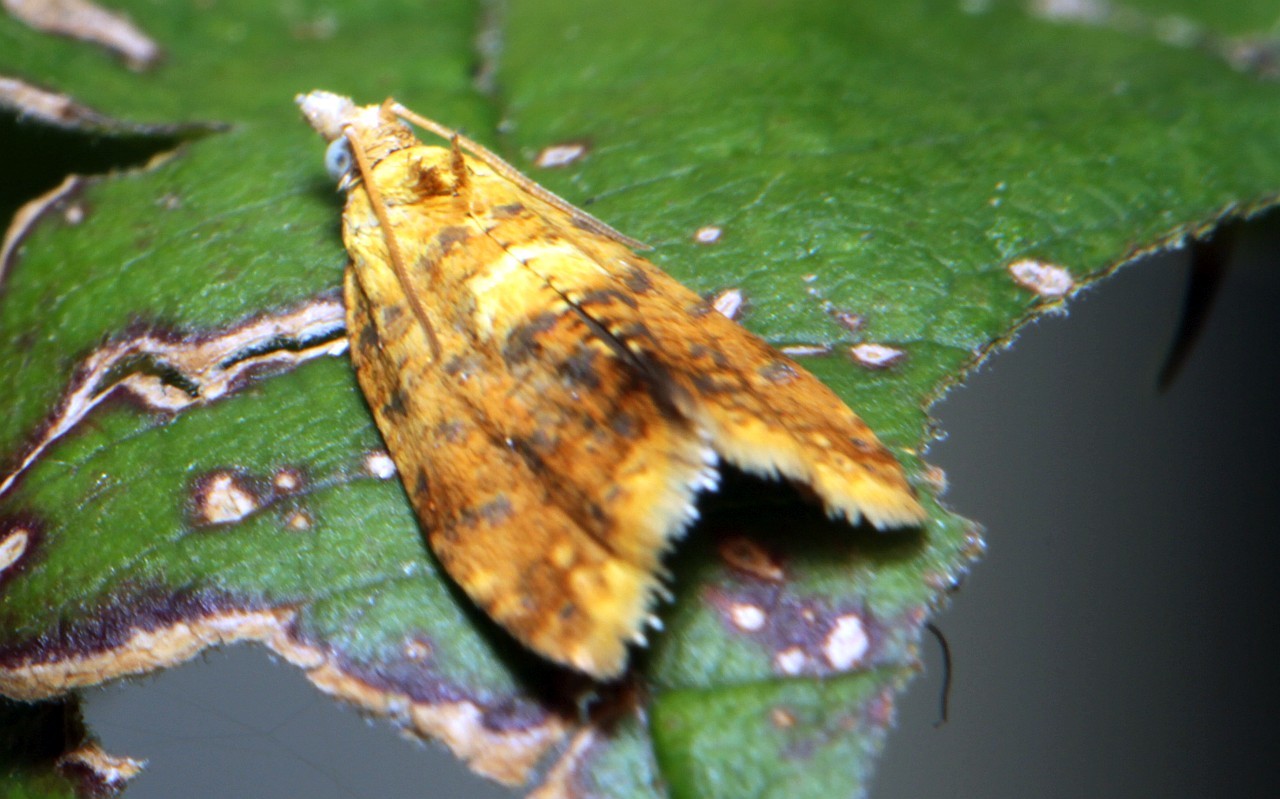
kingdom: Animalia
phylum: Arthropoda
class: Insecta
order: Lepidoptera
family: Tortricidae
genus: Pseudargyrotoza
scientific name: Pseudargyrotoza conwagana
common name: Yellow-spot twist
